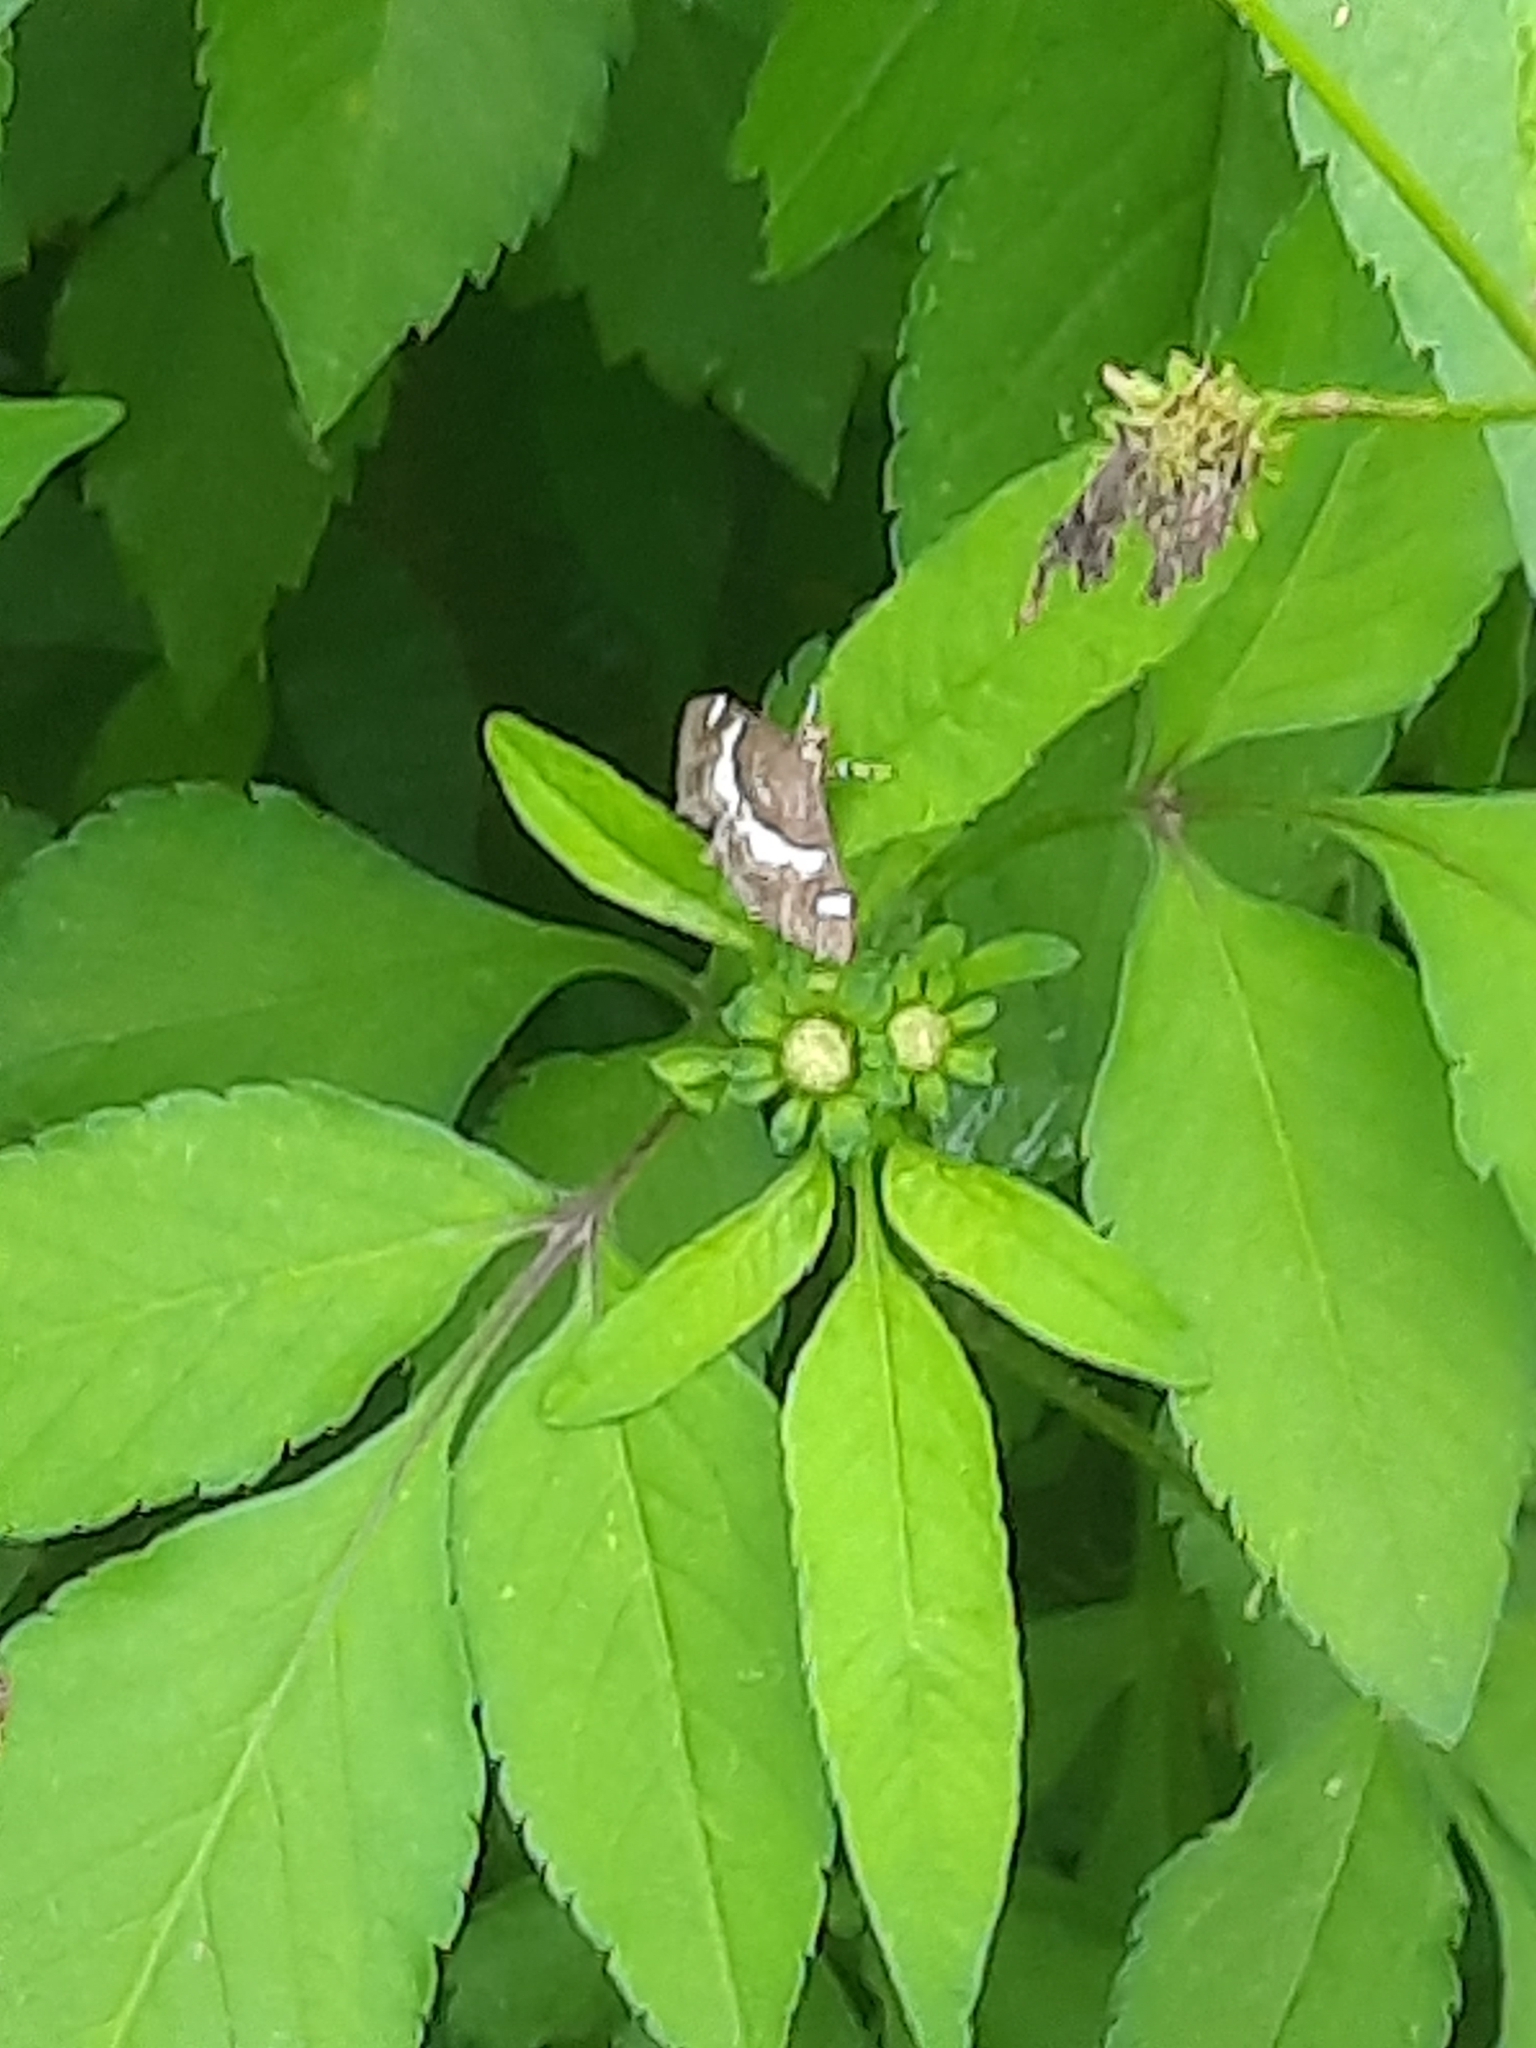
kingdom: Animalia
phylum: Arthropoda
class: Insecta
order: Lepidoptera
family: Crambidae
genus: Spoladea
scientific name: Spoladea recurvalis
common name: Beet webworm moth
